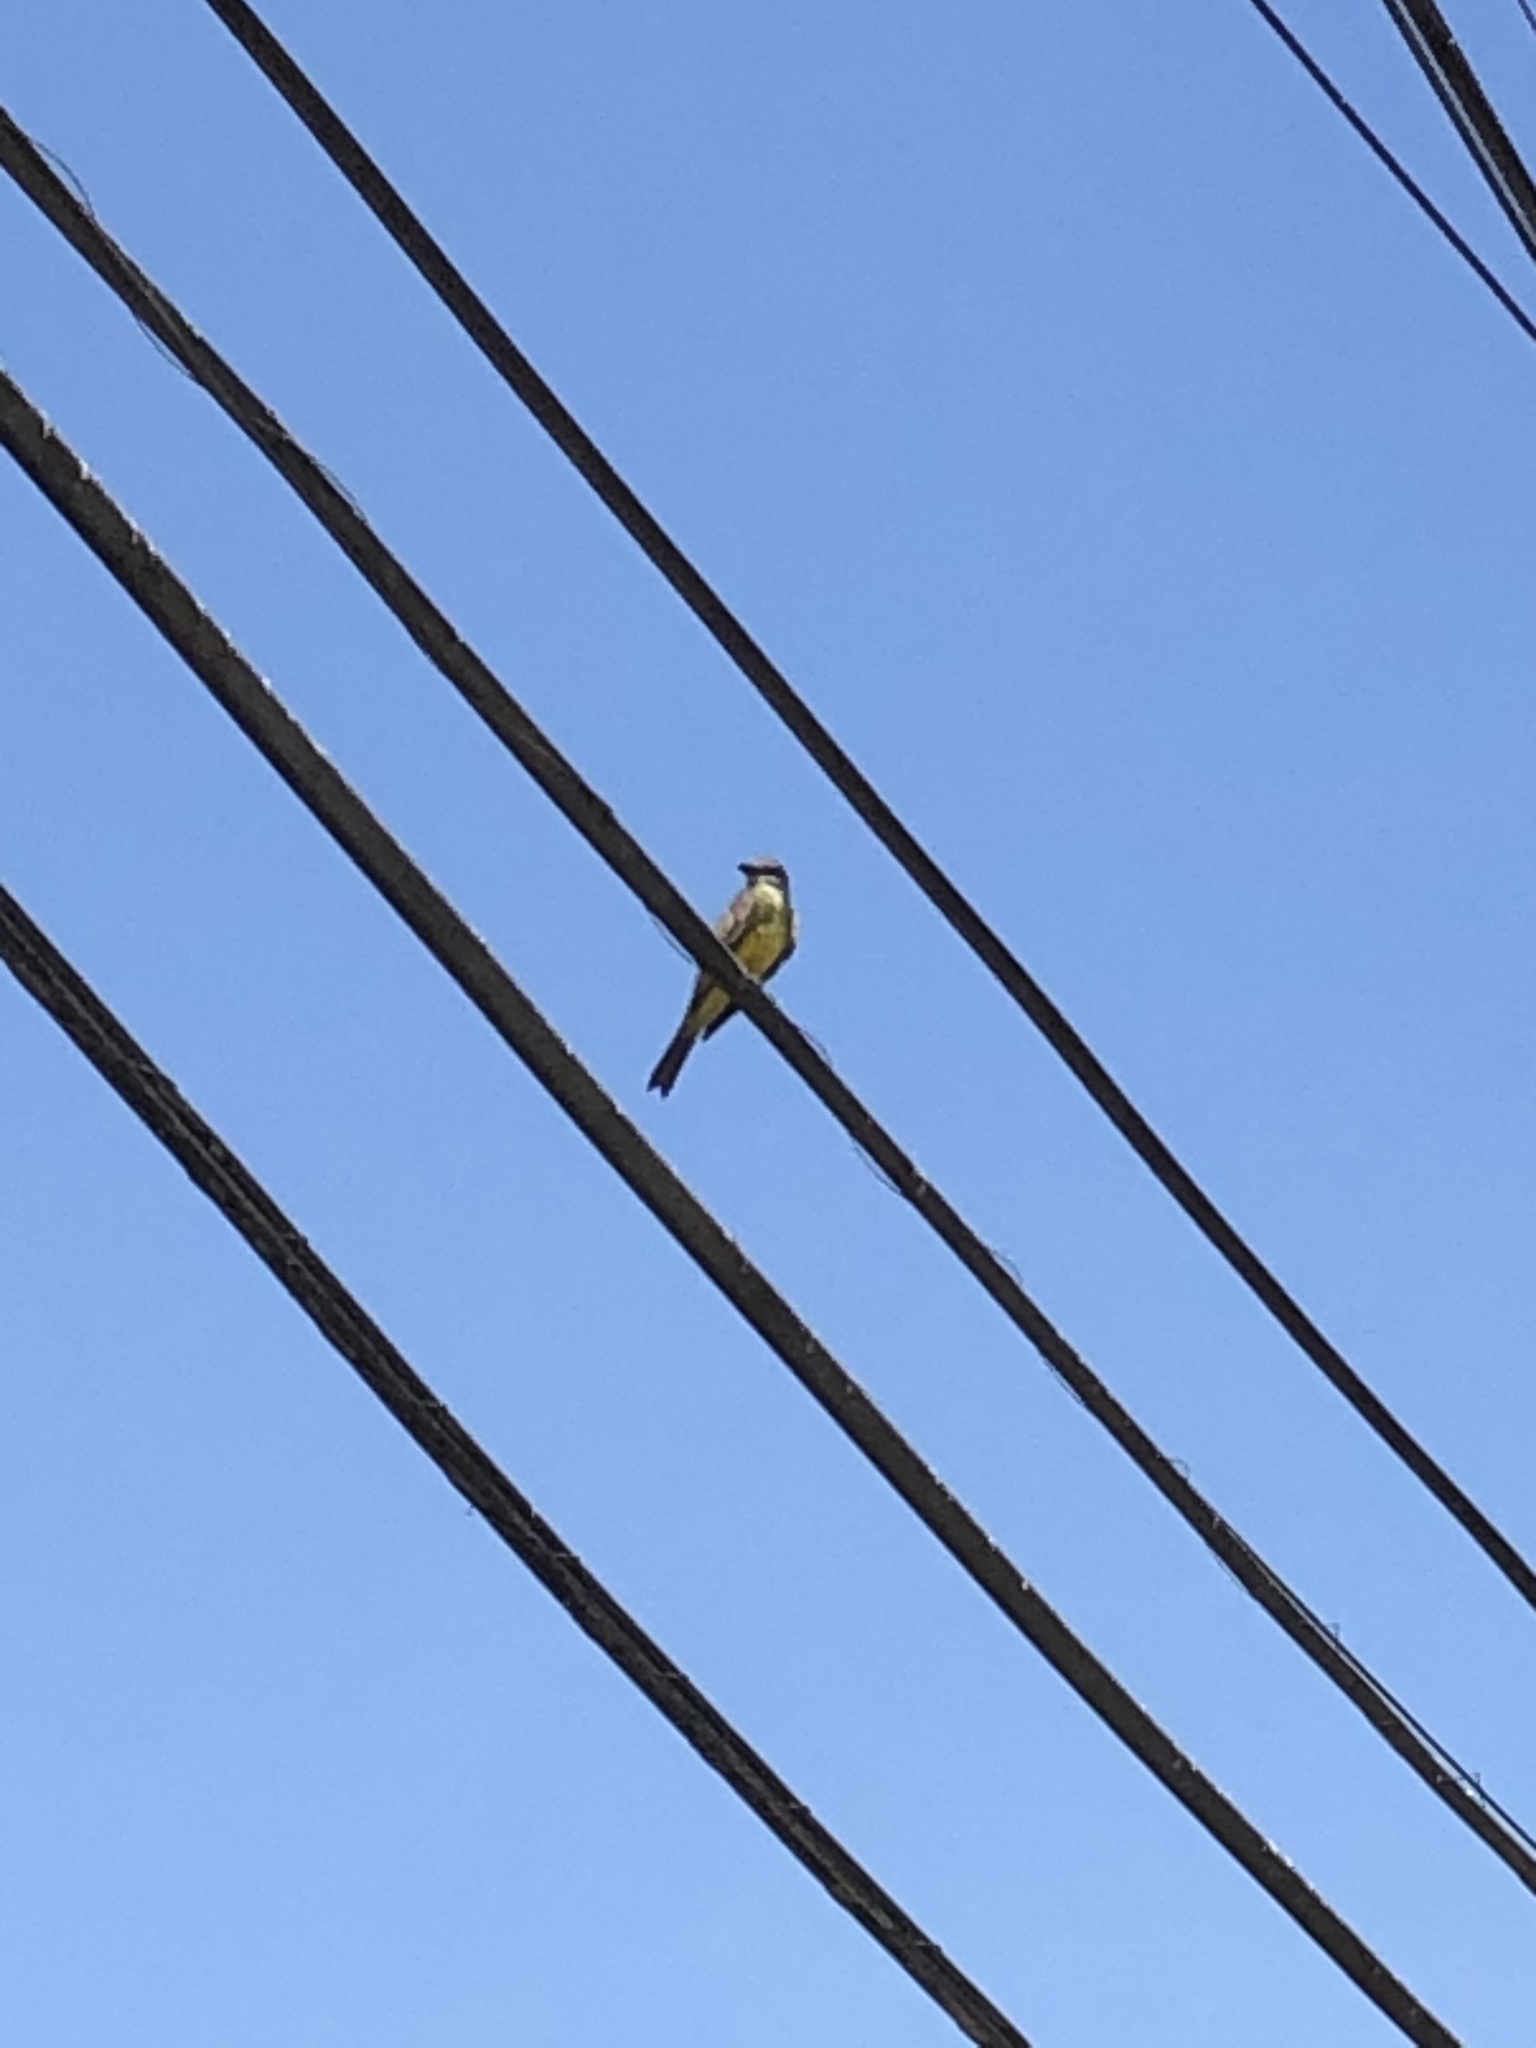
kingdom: Animalia
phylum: Chordata
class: Aves
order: Passeriformes
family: Tyrannidae
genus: Tyrannus
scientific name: Tyrannus melancholicus
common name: Tropical kingbird
